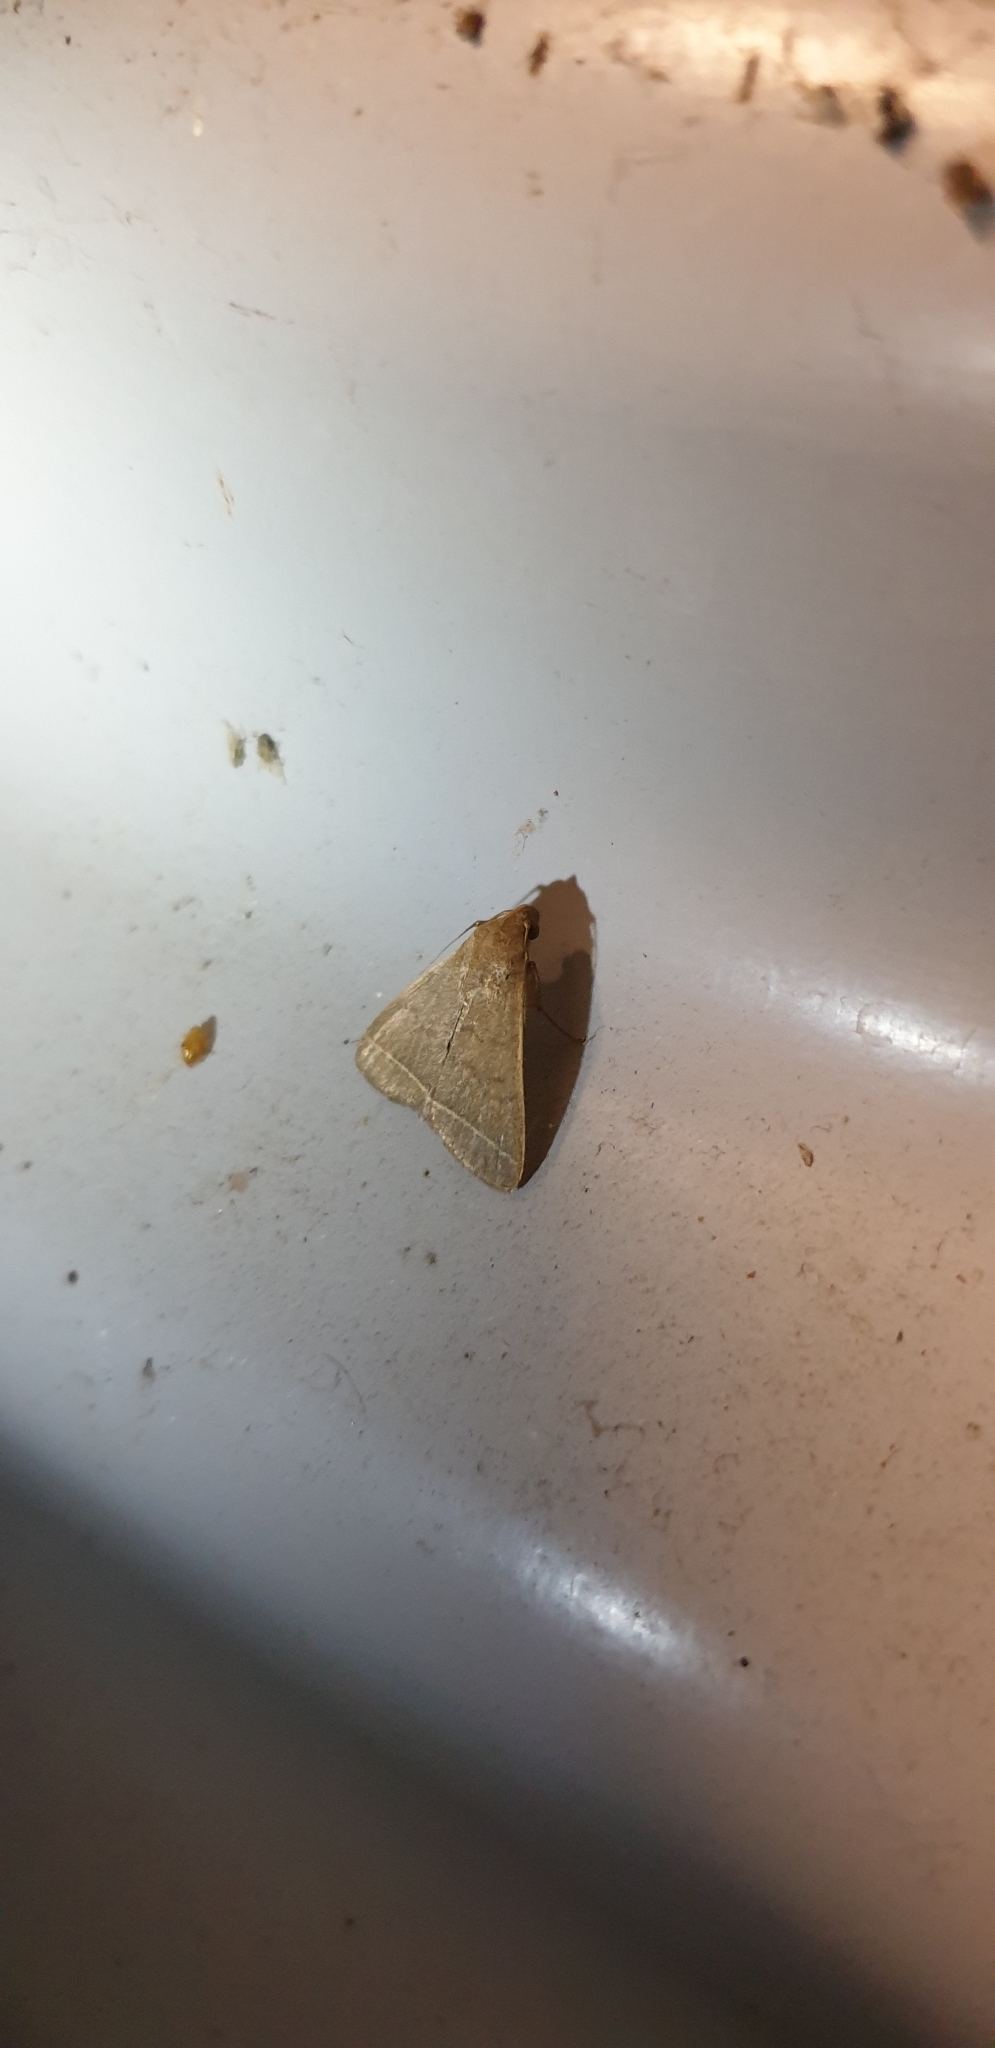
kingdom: Animalia
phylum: Arthropoda
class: Insecta
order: Lepidoptera
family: Erebidae
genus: Simplicia
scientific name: Simplicia cornicalis
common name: Tiki hut litter moth
